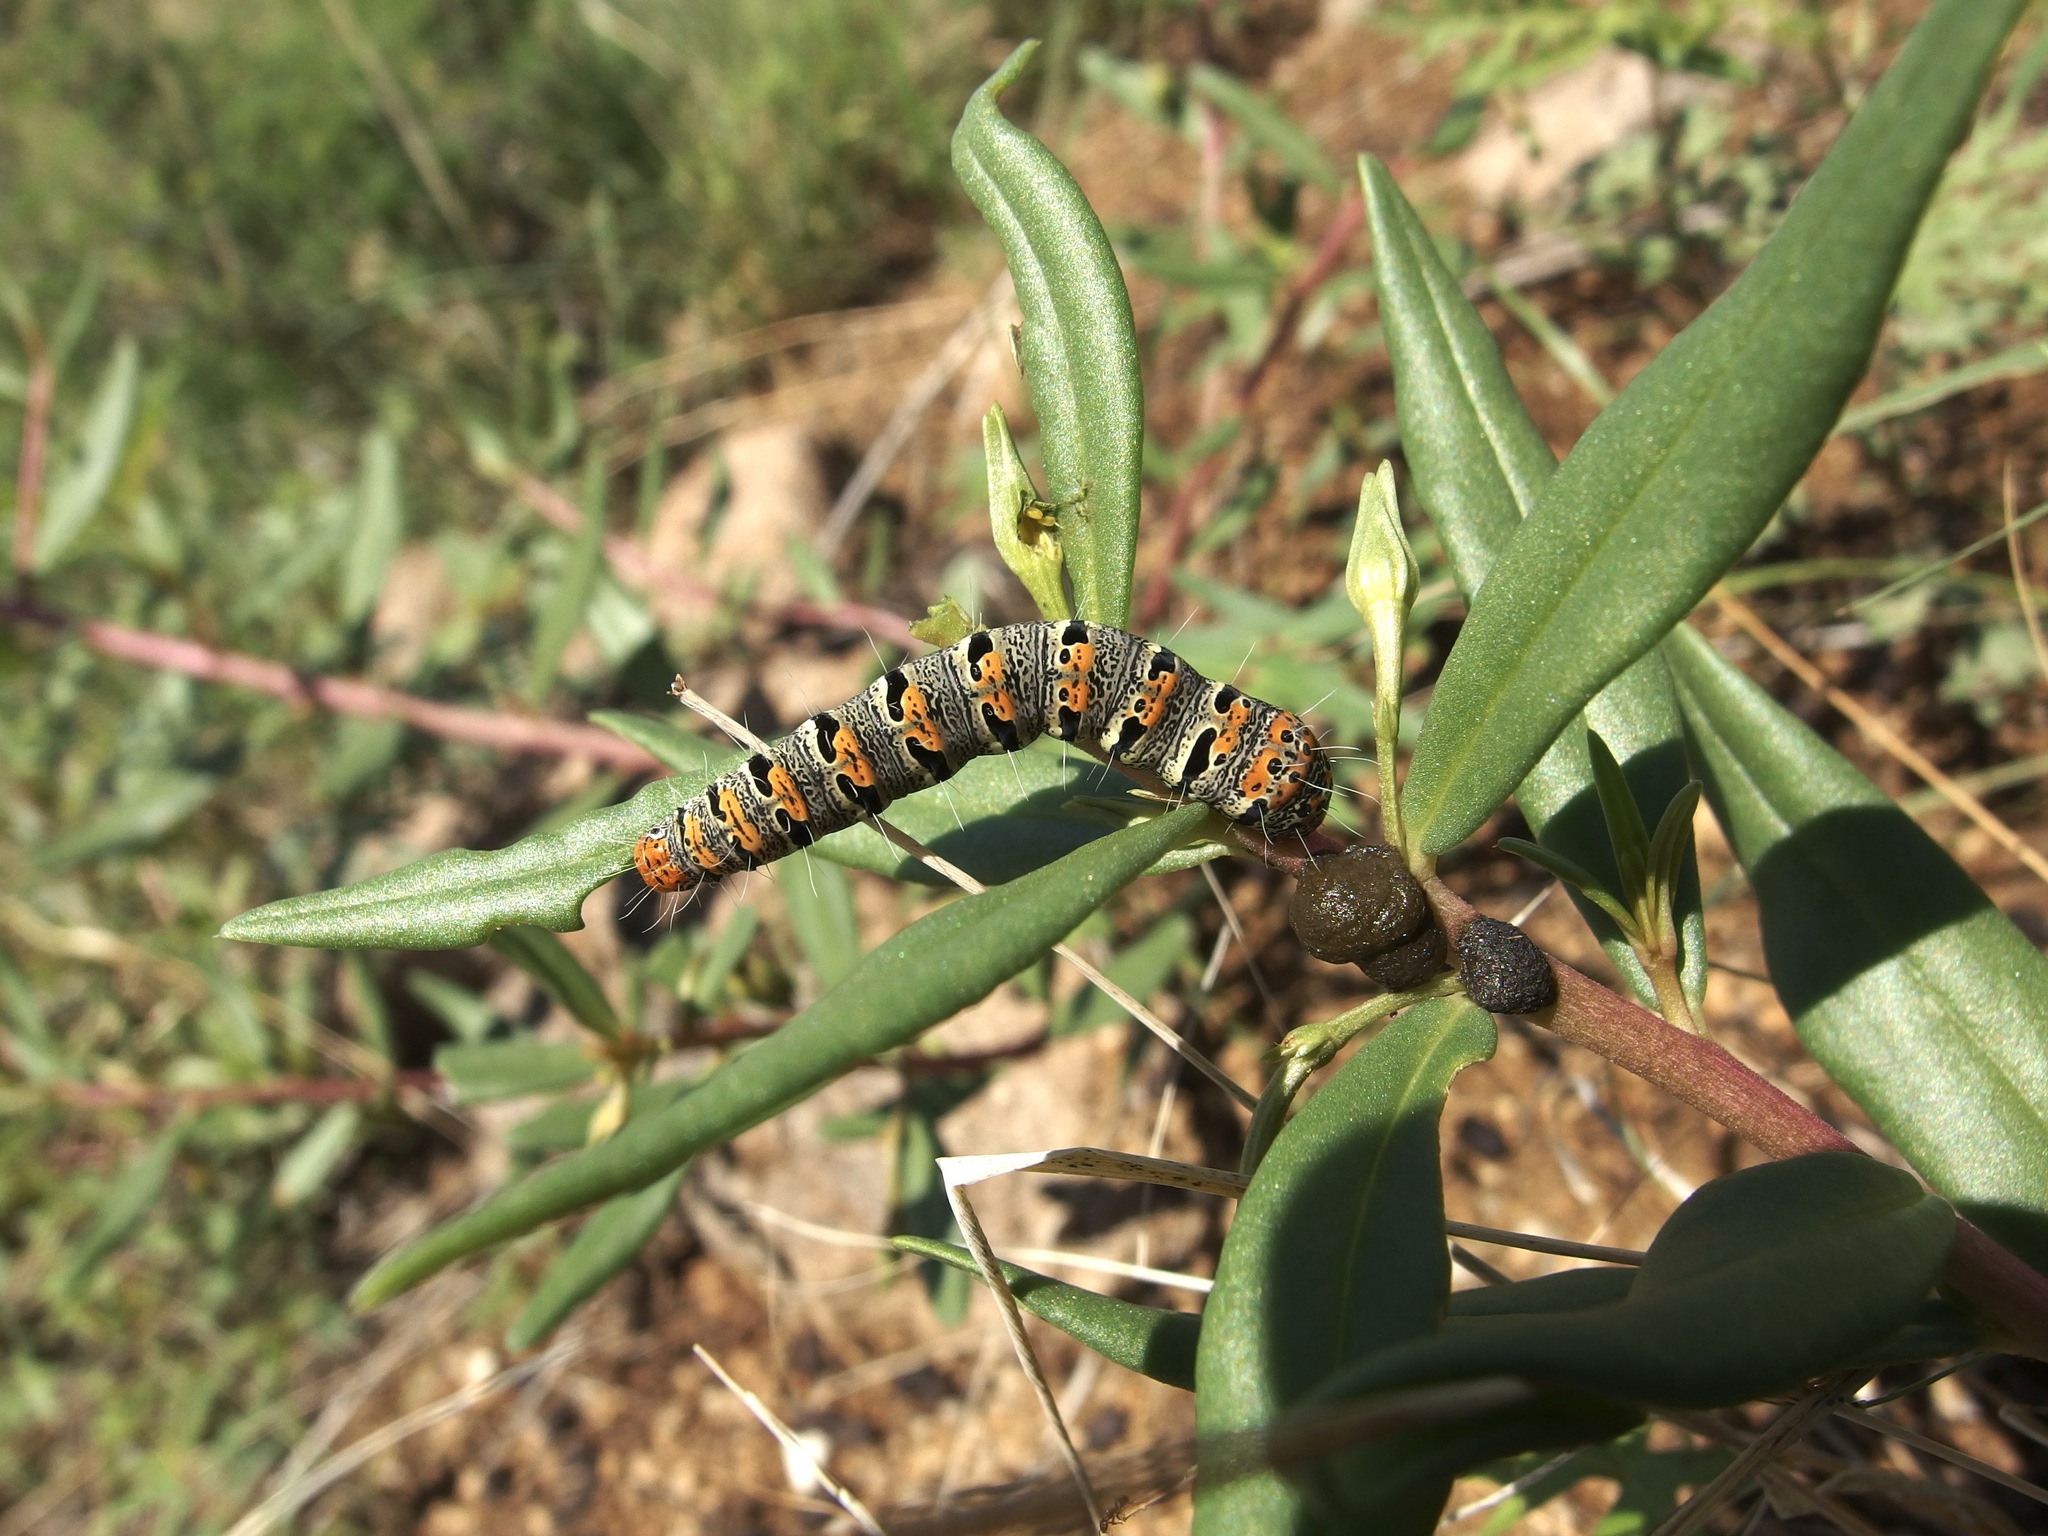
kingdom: Animalia
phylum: Arthropoda
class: Insecta
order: Lepidoptera
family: Noctuidae
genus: Euscirrhopterus
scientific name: Euscirrhopterus gloveri
